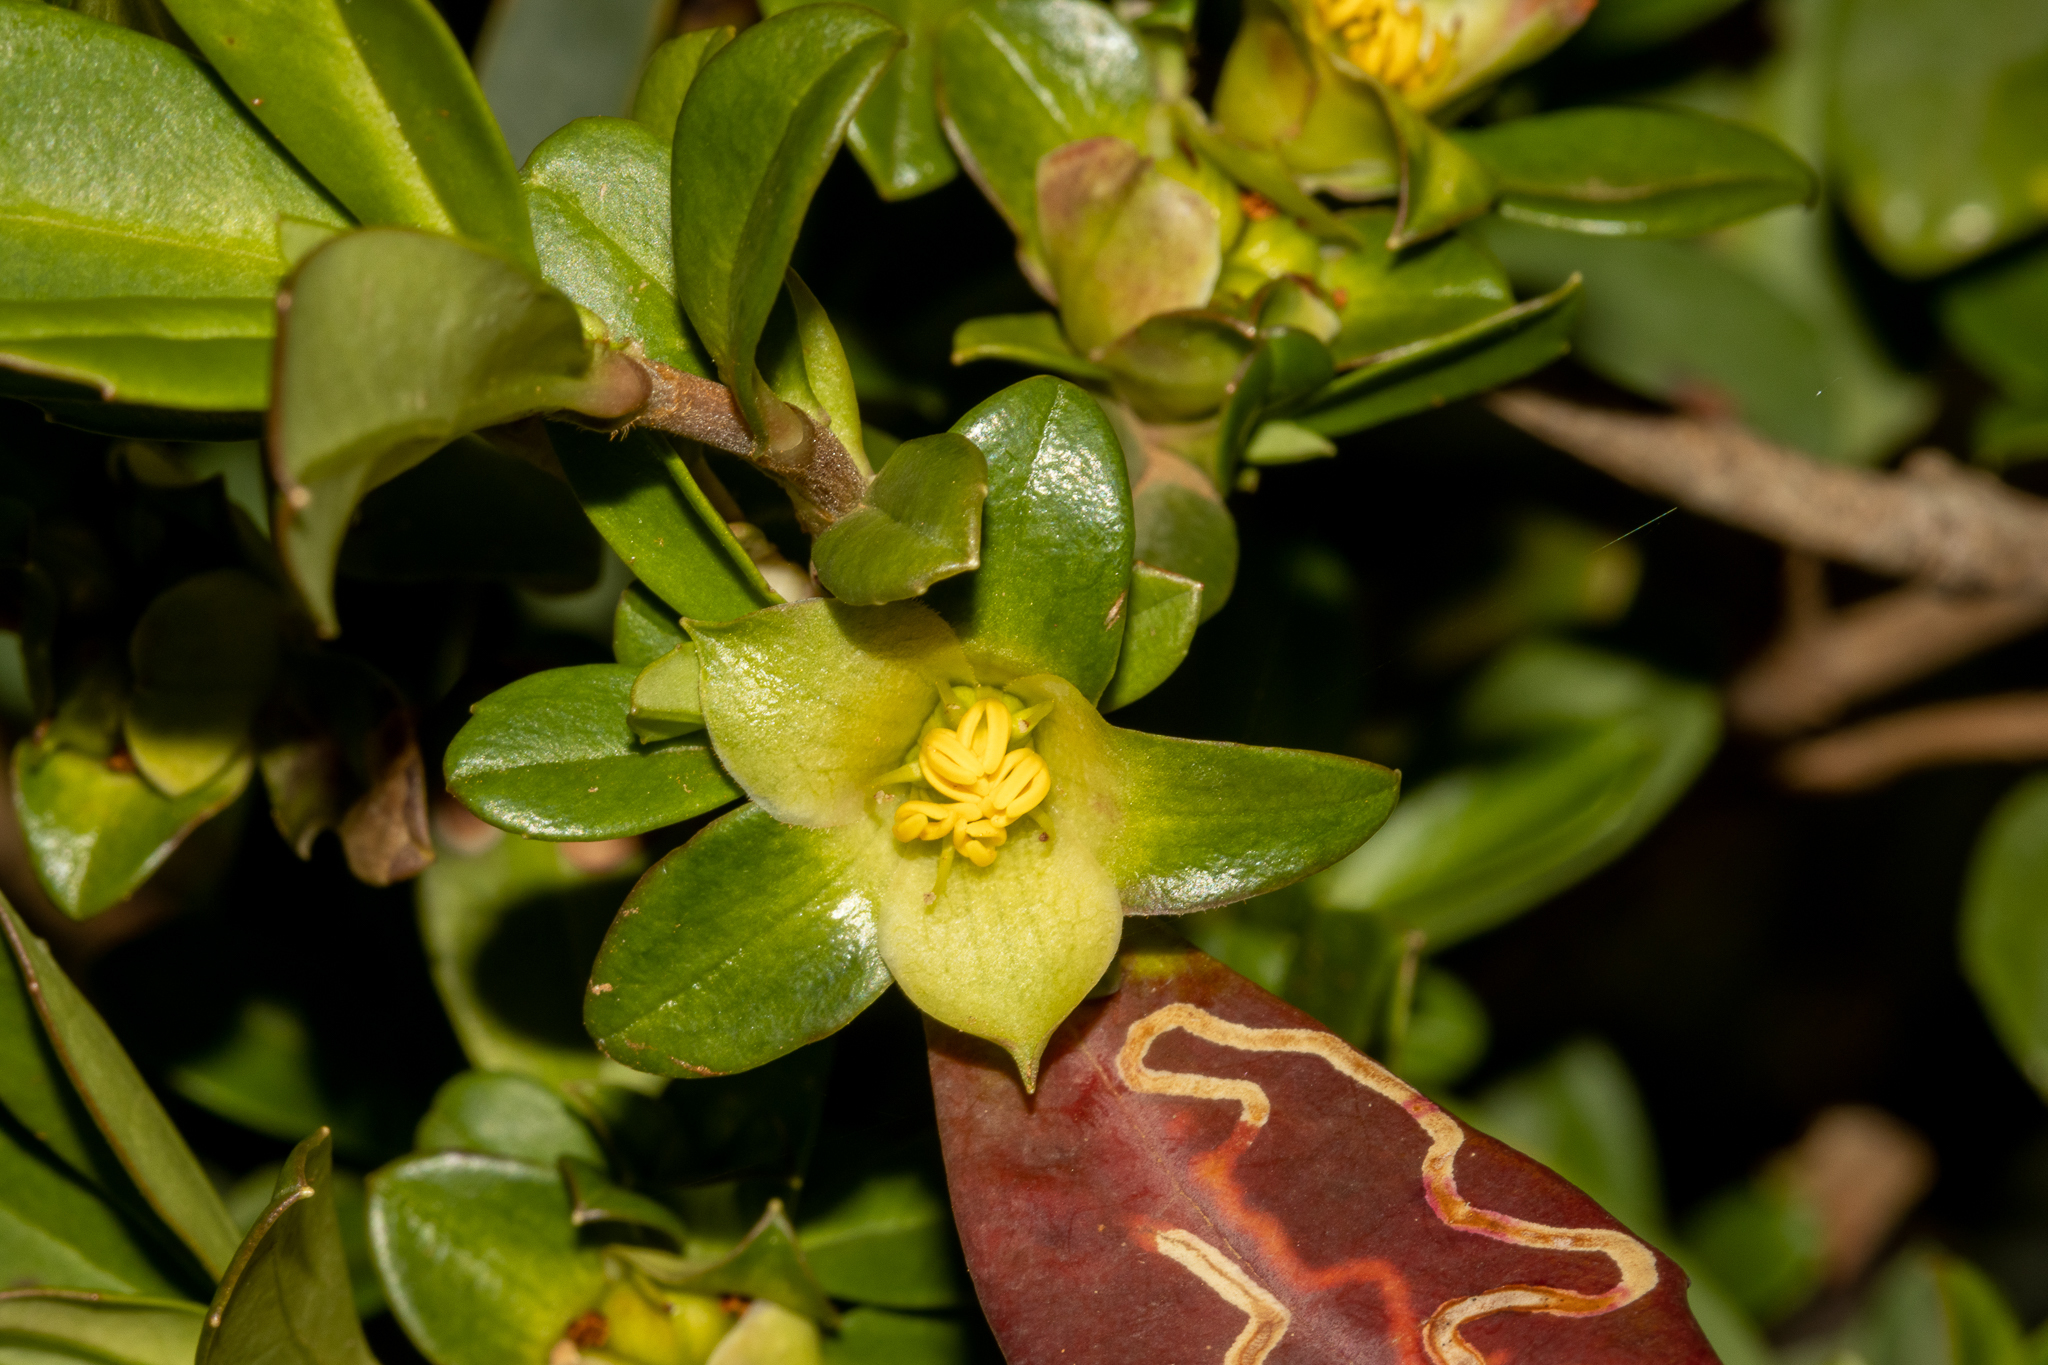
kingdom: Plantae
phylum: Tracheophyta
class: Magnoliopsida
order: Dilleniales
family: Dilleniaceae
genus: Hibbertia
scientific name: Hibbertia cuneiformis
